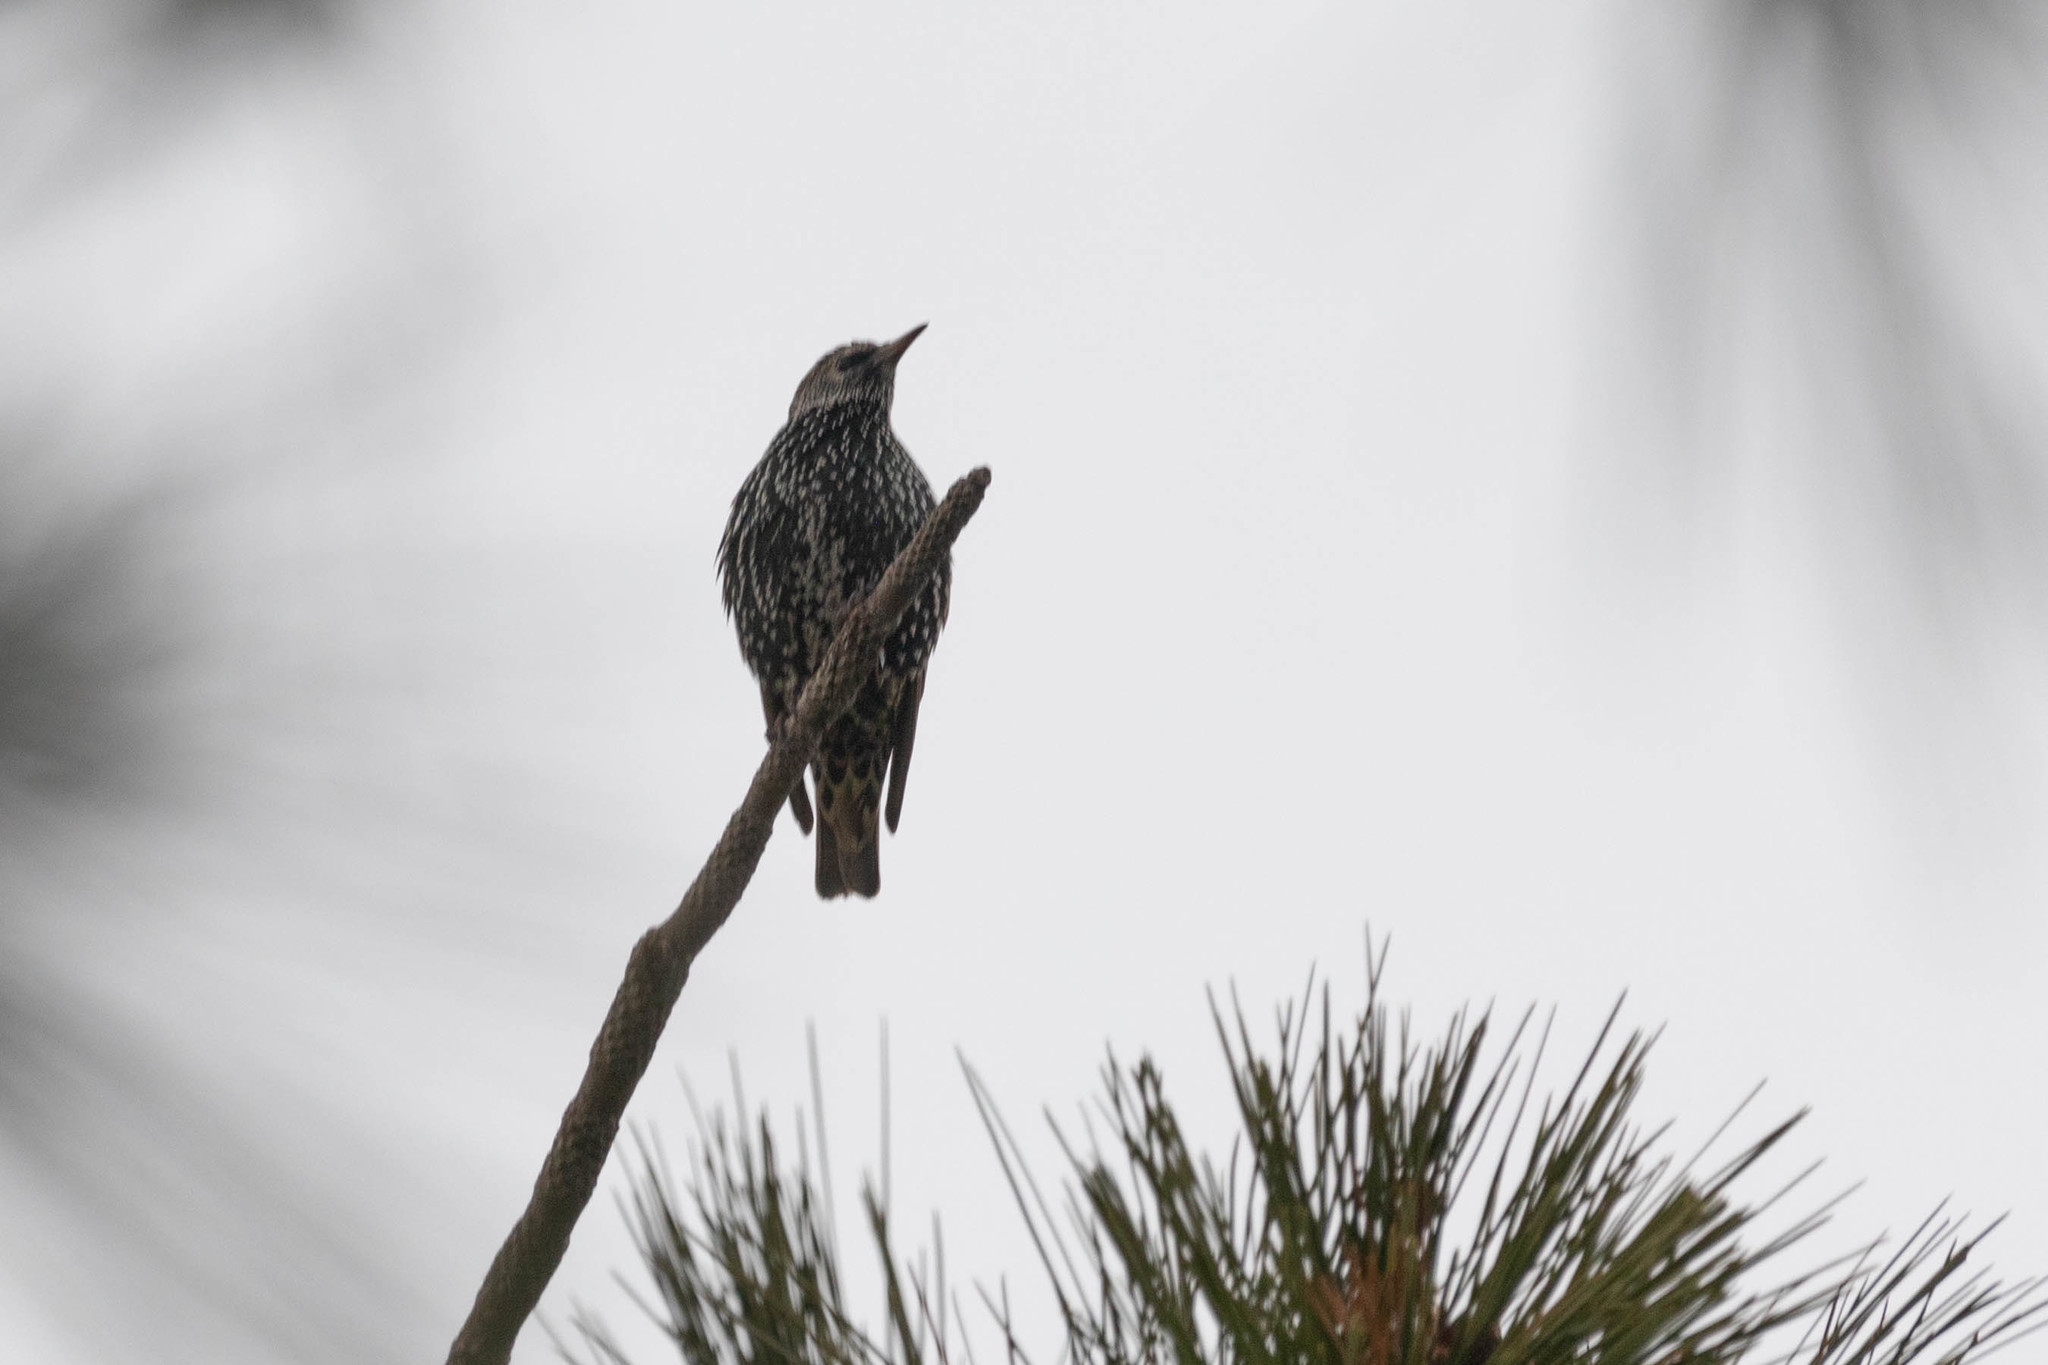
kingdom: Animalia
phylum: Chordata
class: Aves
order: Passeriformes
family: Sturnidae
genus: Sturnus
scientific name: Sturnus vulgaris
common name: Common starling
